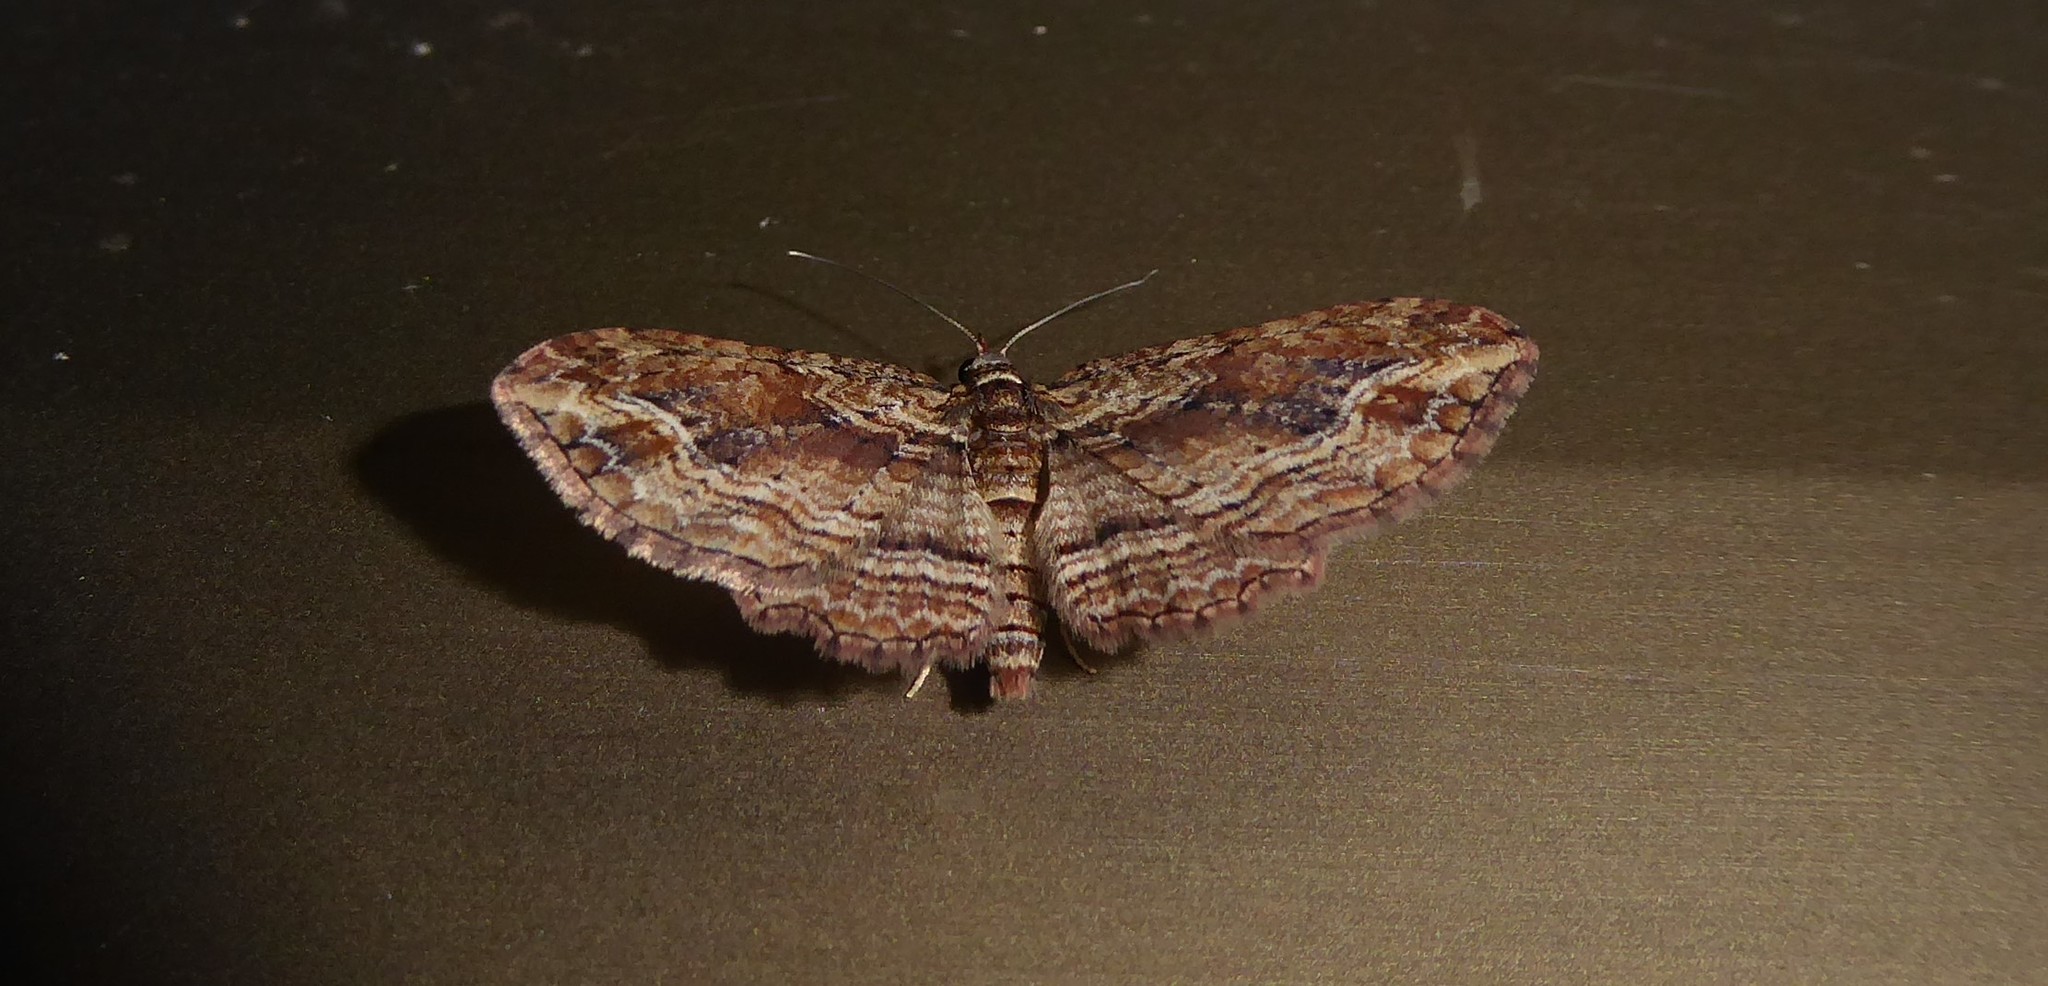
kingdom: Animalia
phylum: Arthropoda
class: Insecta
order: Lepidoptera
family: Geometridae
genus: Chloroclystis
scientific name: Chloroclystis filata
